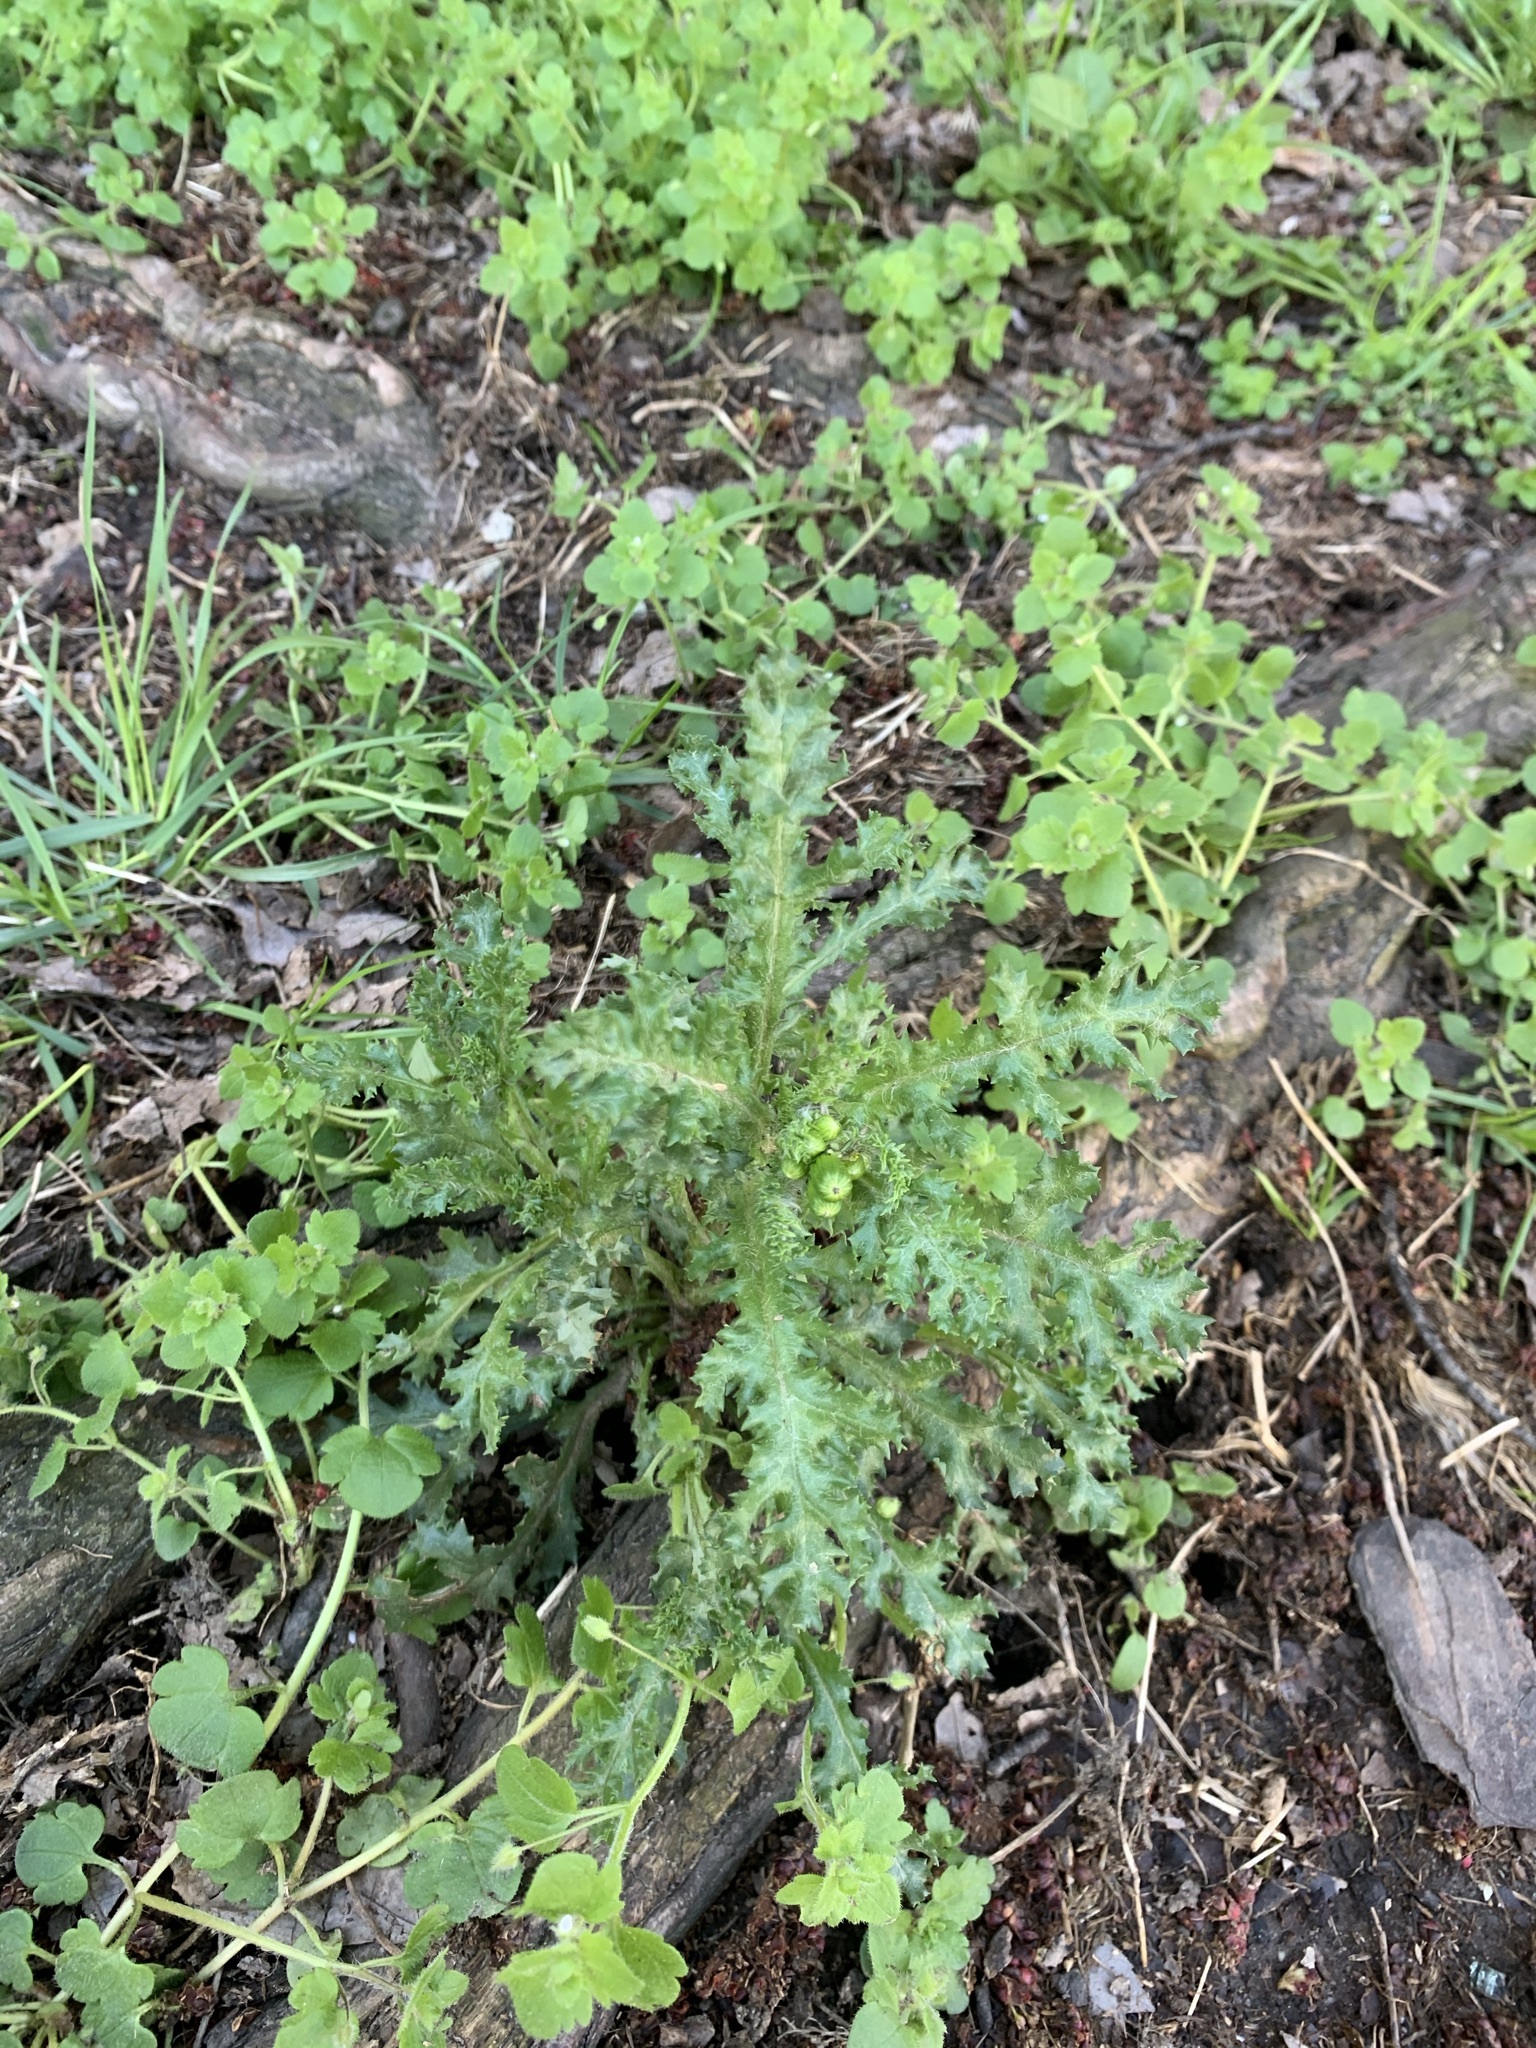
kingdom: Plantae
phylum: Tracheophyta
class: Magnoliopsida
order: Asterales
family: Asteraceae
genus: Senecio
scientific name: Senecio vulgaris
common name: Old-man-in-the-spring
